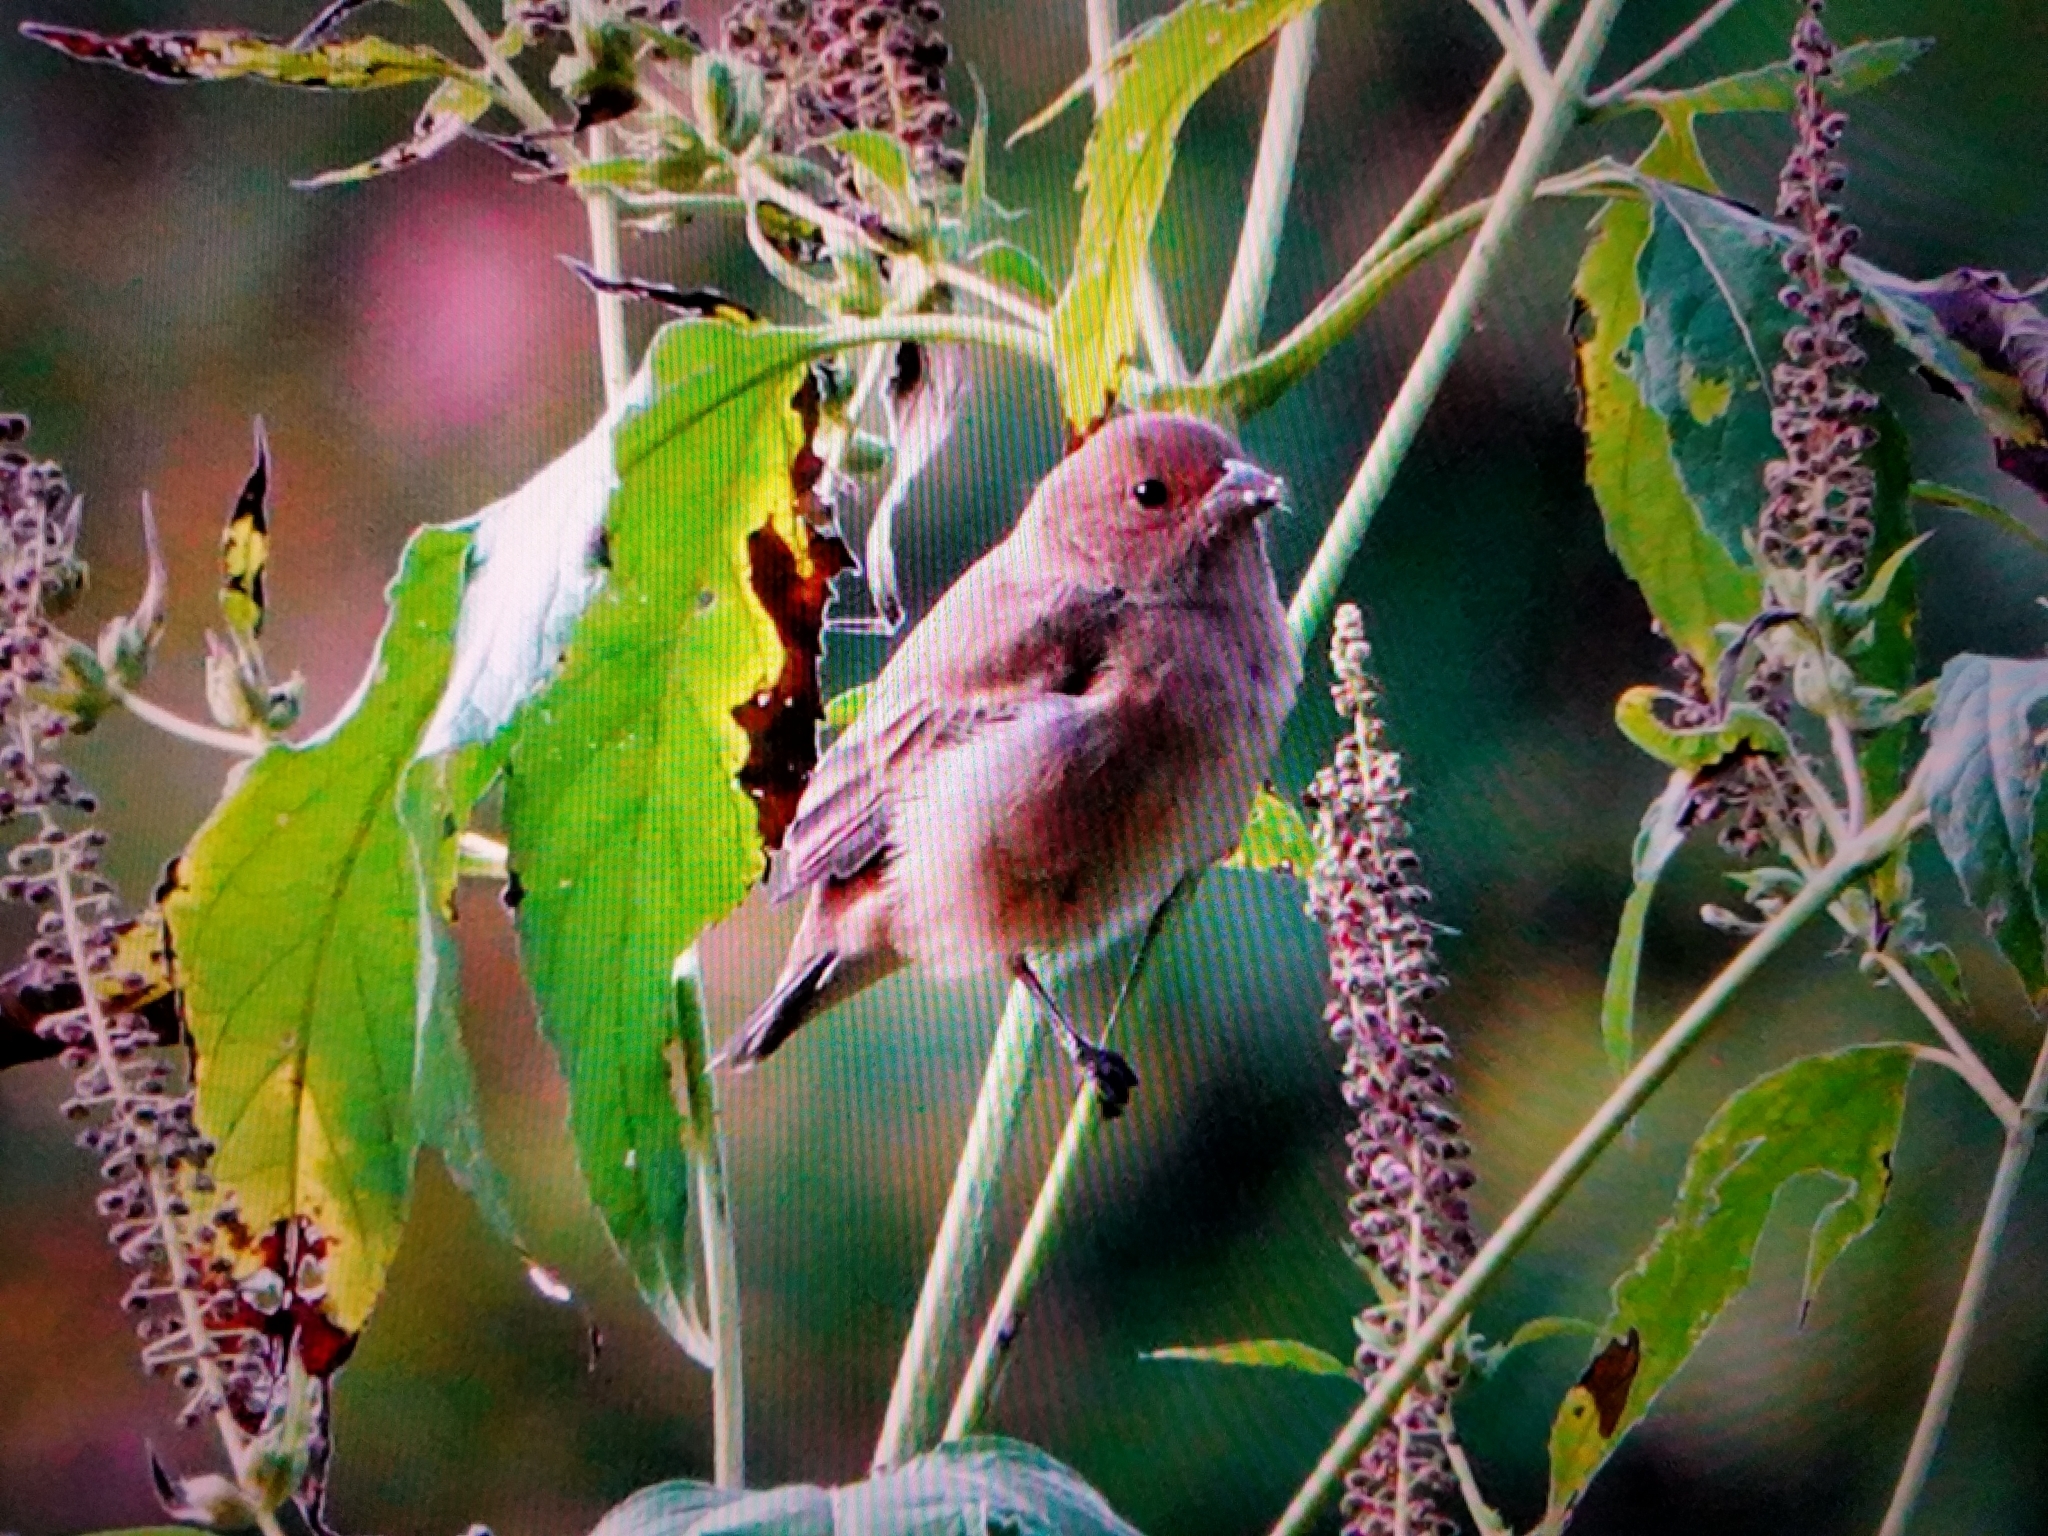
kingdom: Animalia
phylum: Chordata
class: Aves
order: Passeriformes
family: Cardinalidae
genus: Passerina
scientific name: Passerina cyanea
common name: Indigo bunting
